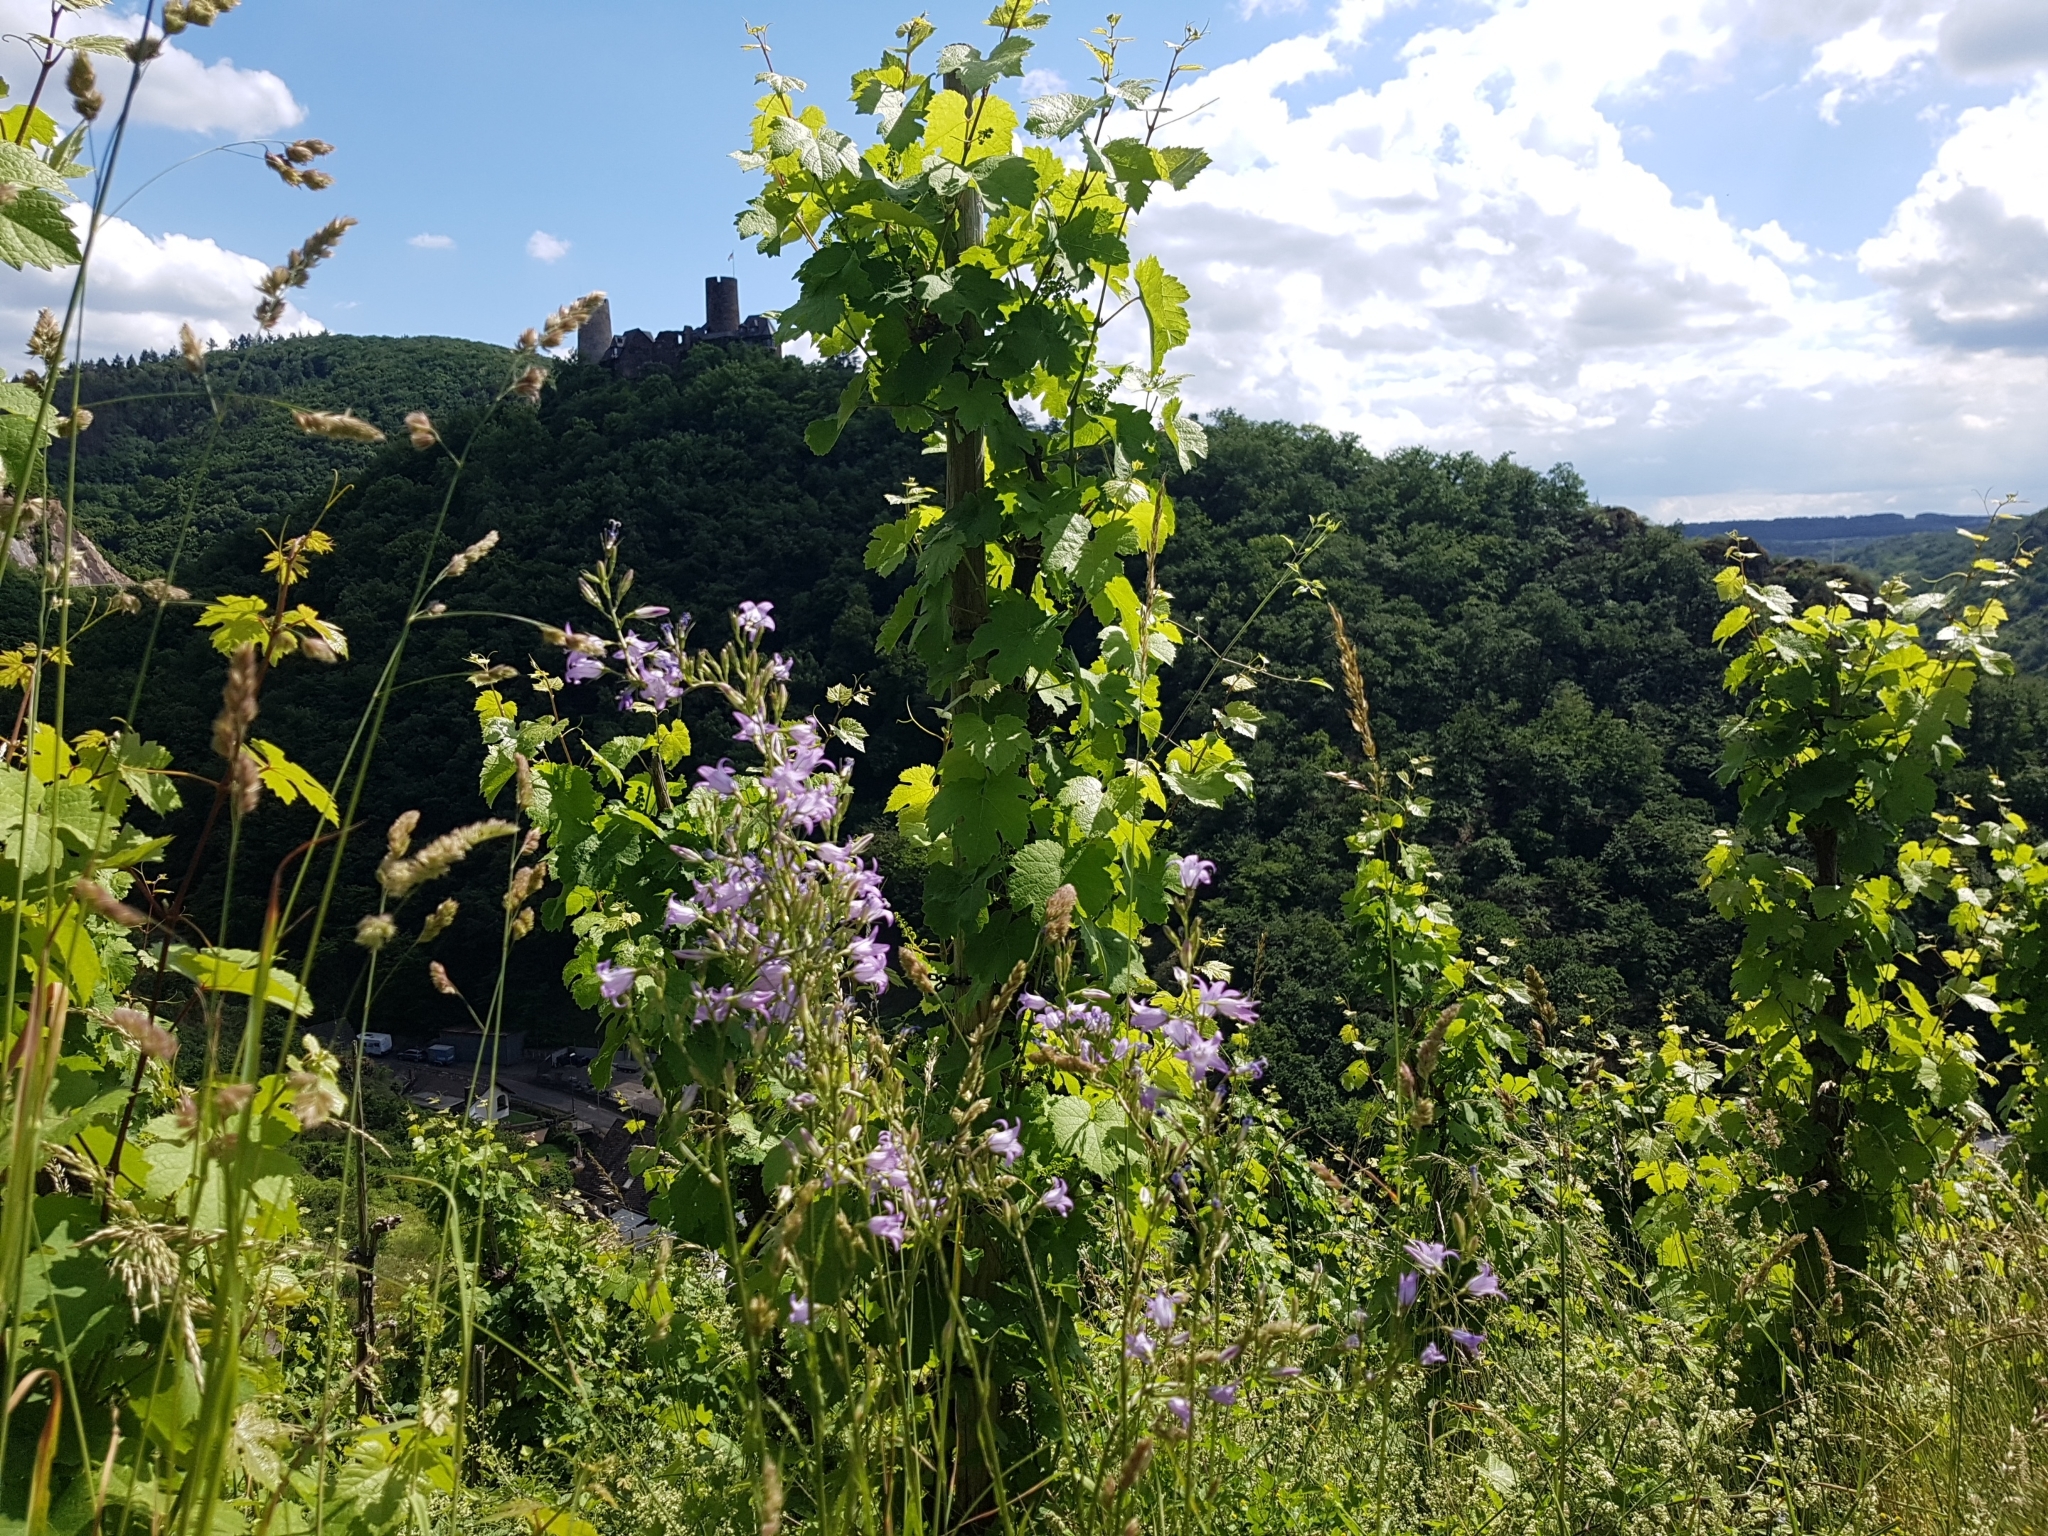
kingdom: Plantae
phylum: Tracheophyta
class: Magnoliopsida
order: Asterales
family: Campanulaceae
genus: Campanula
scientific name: Campanula rapunculus
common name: Rampion bellflower
